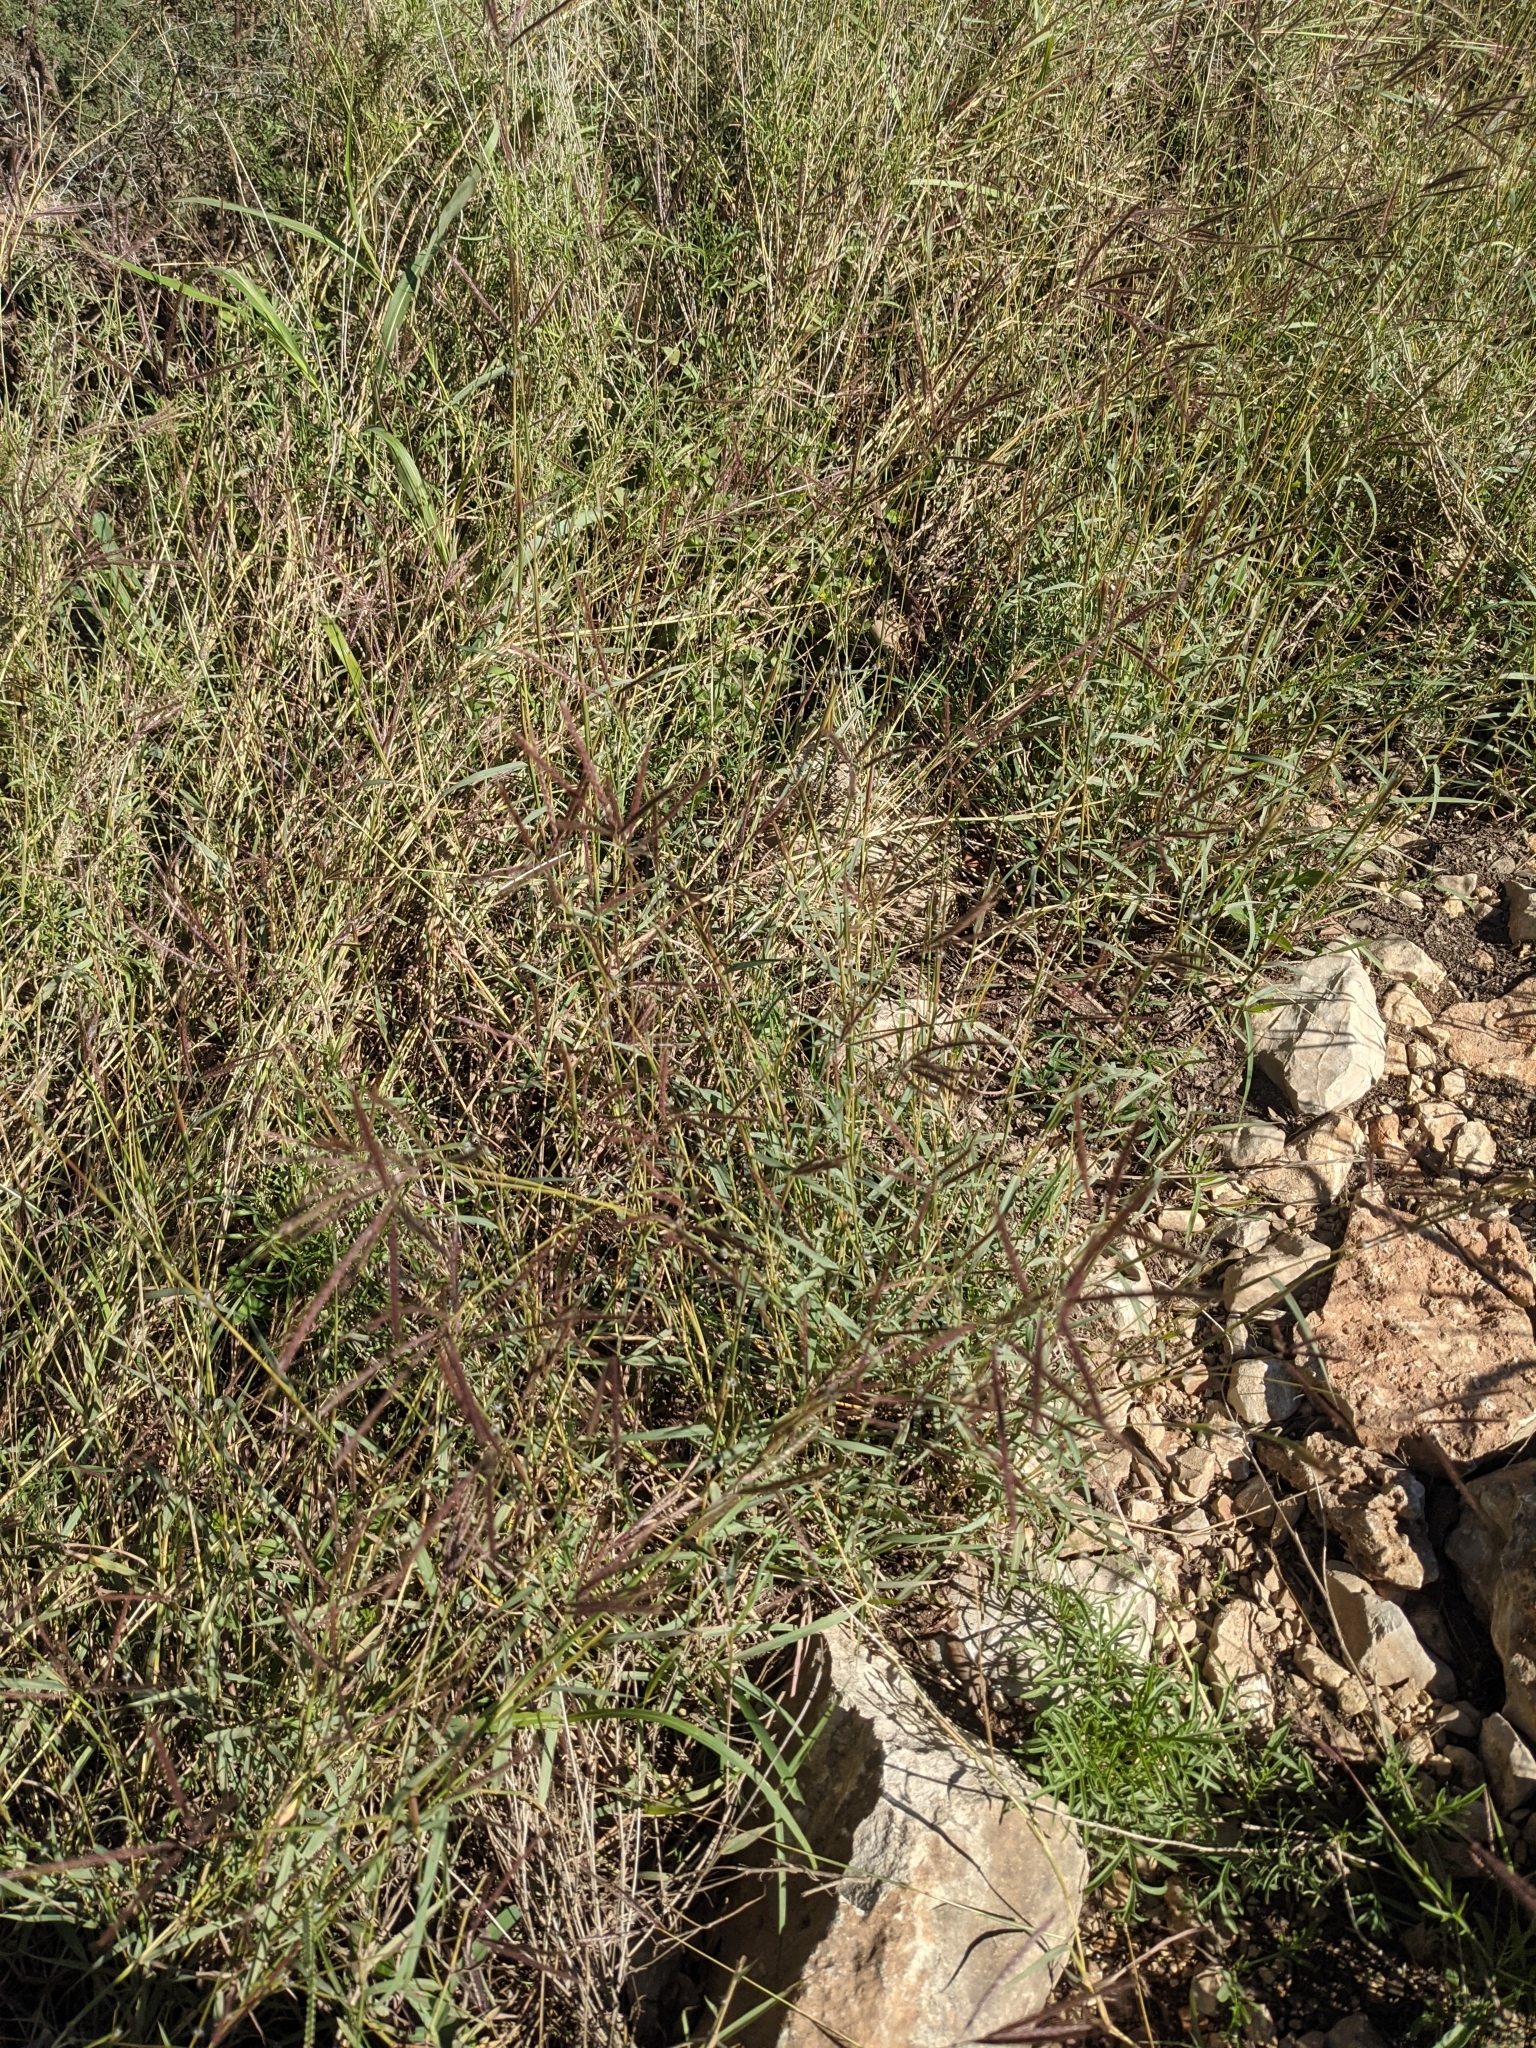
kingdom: Plantae
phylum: Tracheophyta
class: Liliopsida
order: Poales
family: Poaceae
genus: Dichanthium
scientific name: Dichanthium annulatum
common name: Kleberg's bluestem
